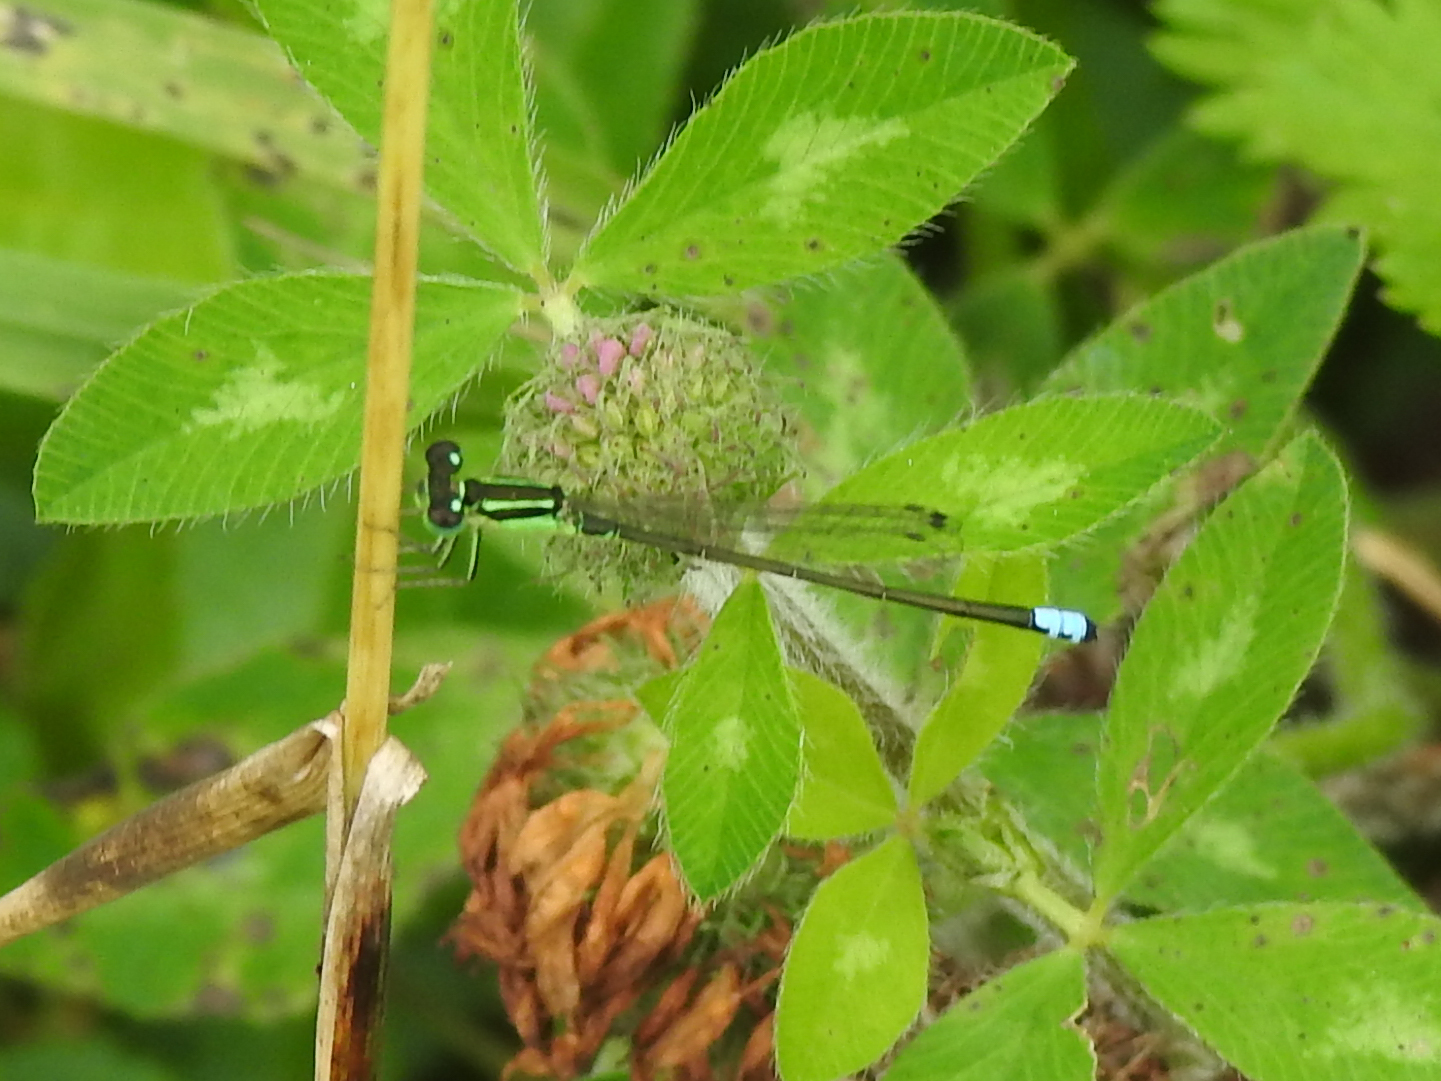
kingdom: Animalia
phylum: Arthropoda
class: Insecta
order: Odonata
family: Coenagrionidae
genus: Ischnura
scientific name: Ischnura verticalis
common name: Eastern forktail
